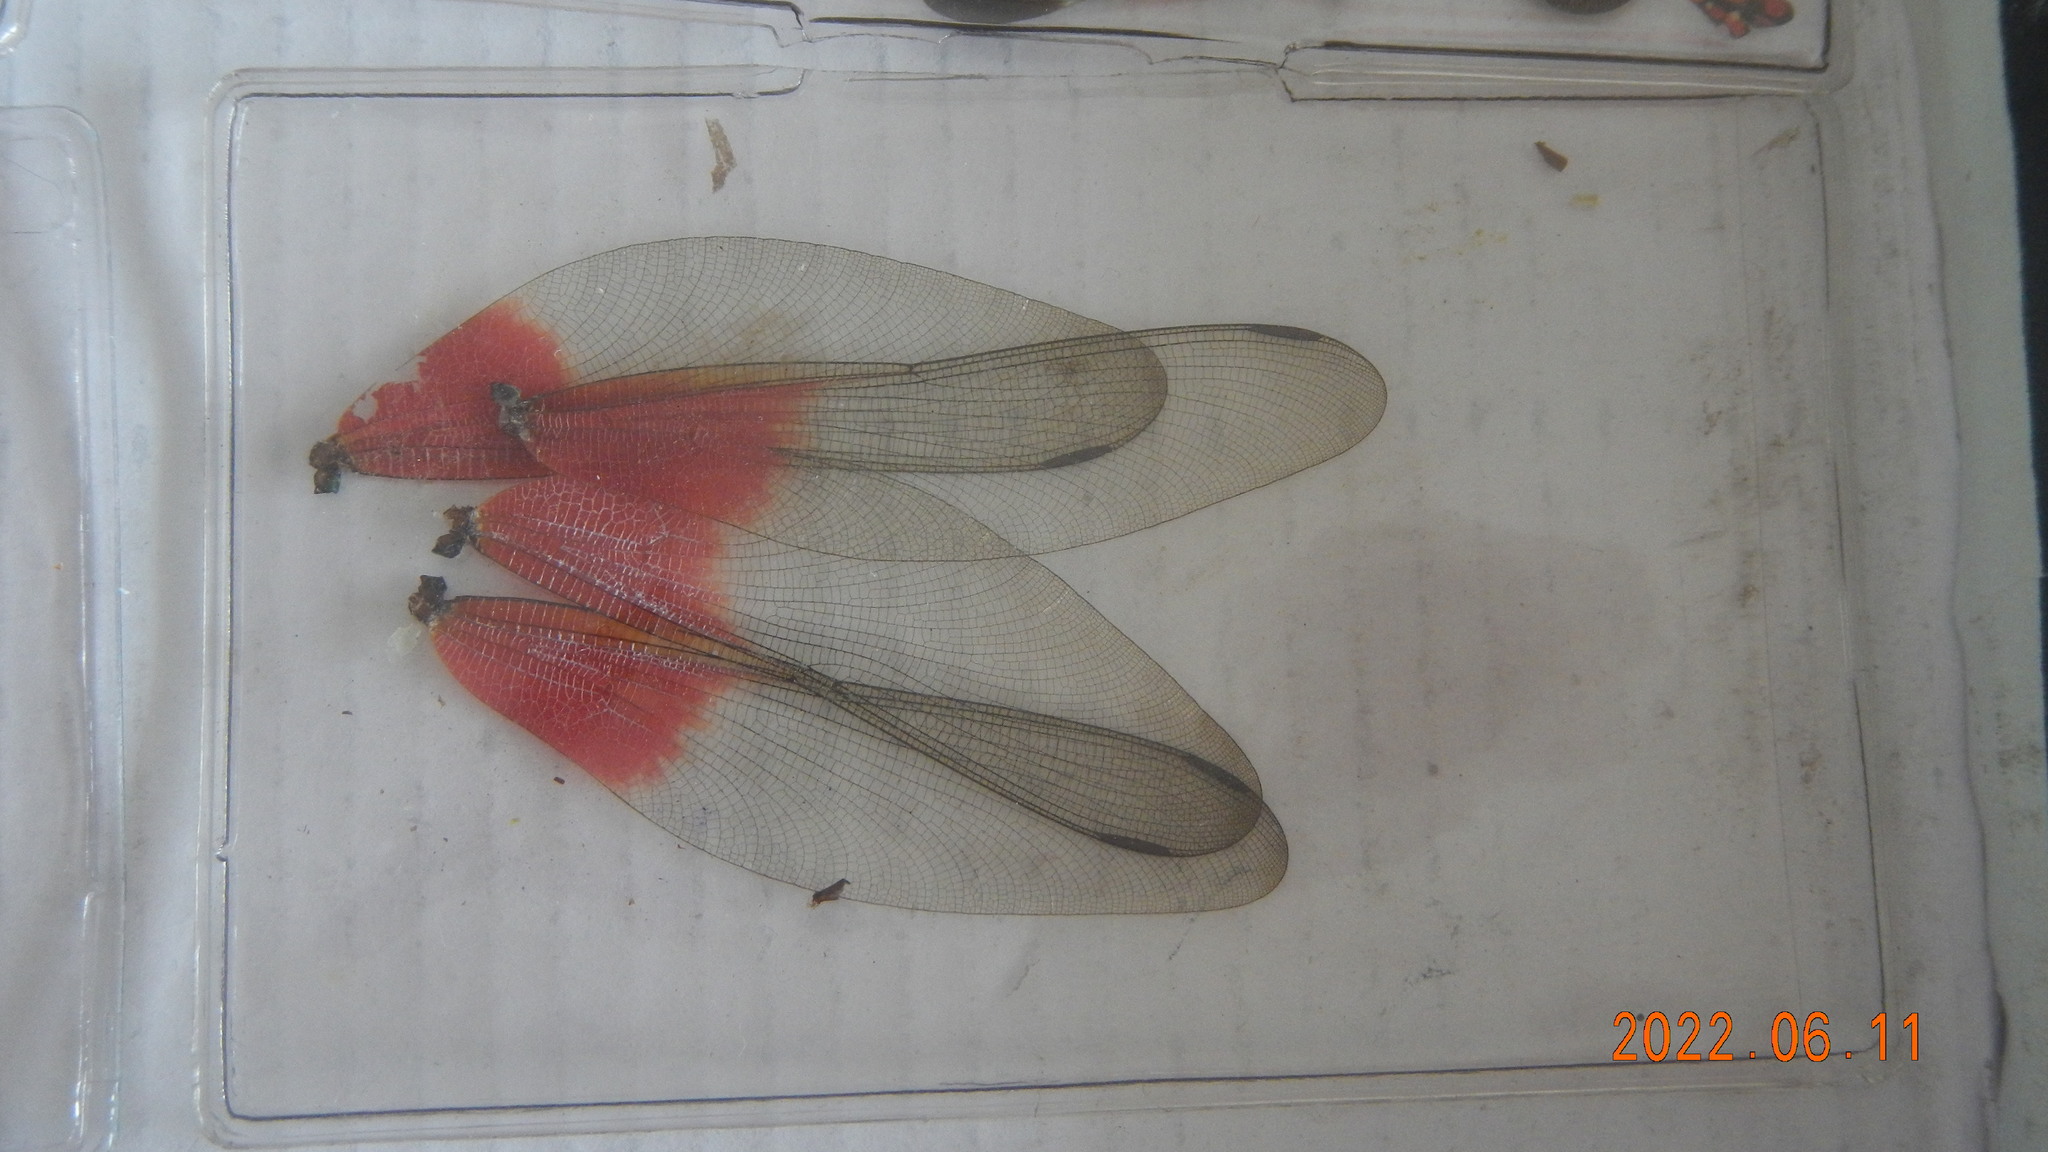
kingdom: Animalia
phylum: Arthropoda
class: Insecta
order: Odonata
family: Calopterygidae
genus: Archineura
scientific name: Archineura incarnata
